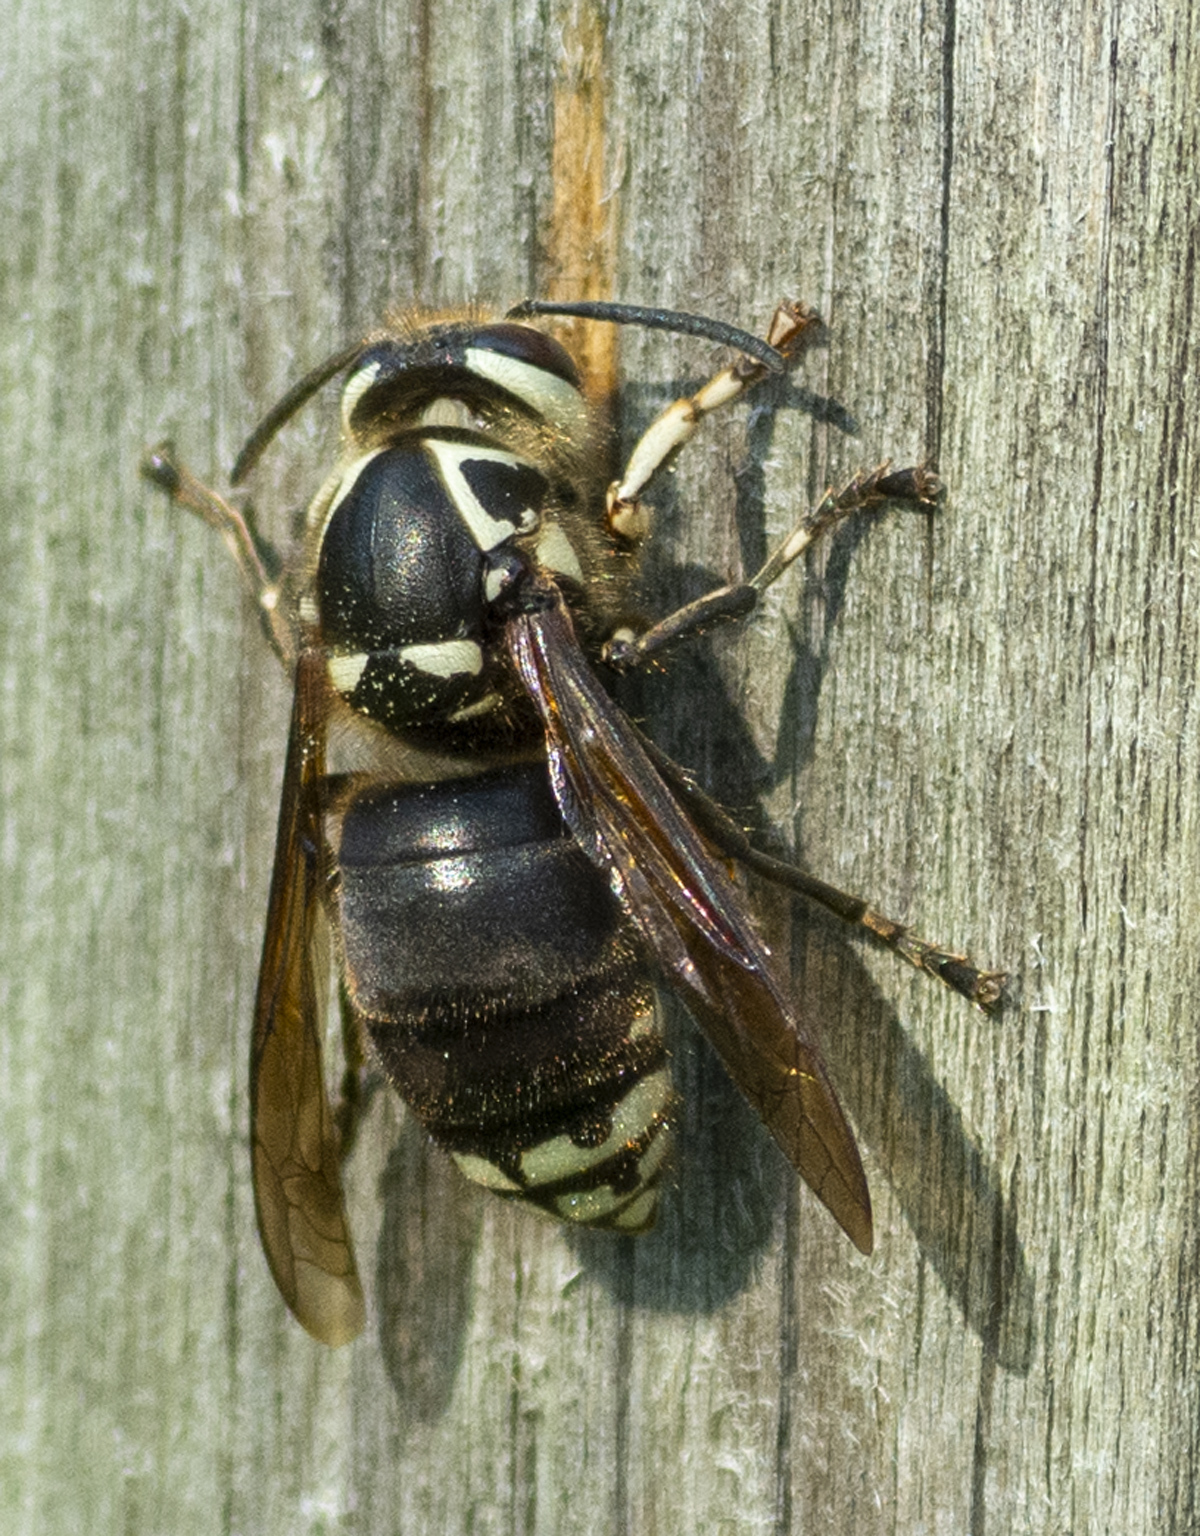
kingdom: Animalia
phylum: Arthropoda
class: Insecta
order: Hymenoptera
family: Vespidae
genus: Dolichovespula
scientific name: Dolichovespula maculata
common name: Bald-faced hornet
